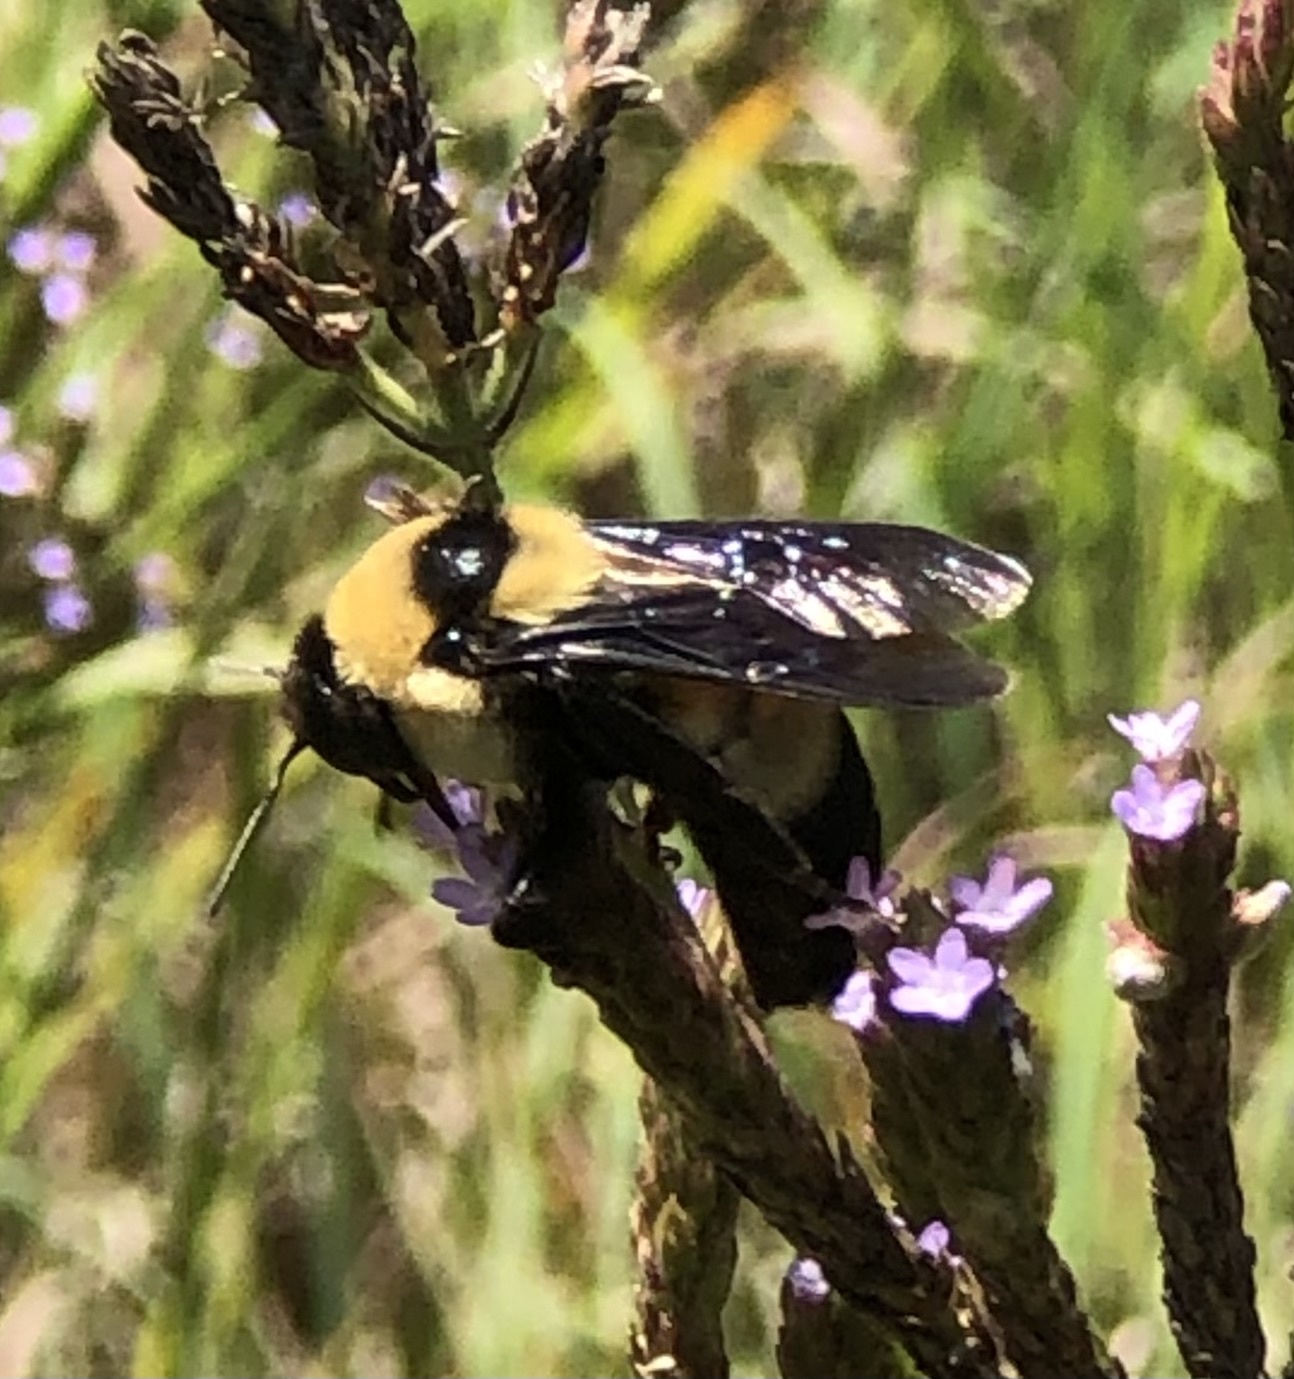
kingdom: Animalia
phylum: Arthropoda
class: Insecta
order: Hymenoptera
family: Apidae
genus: Bombus
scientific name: Bombus fraternus
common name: Southern plains bumble bee
